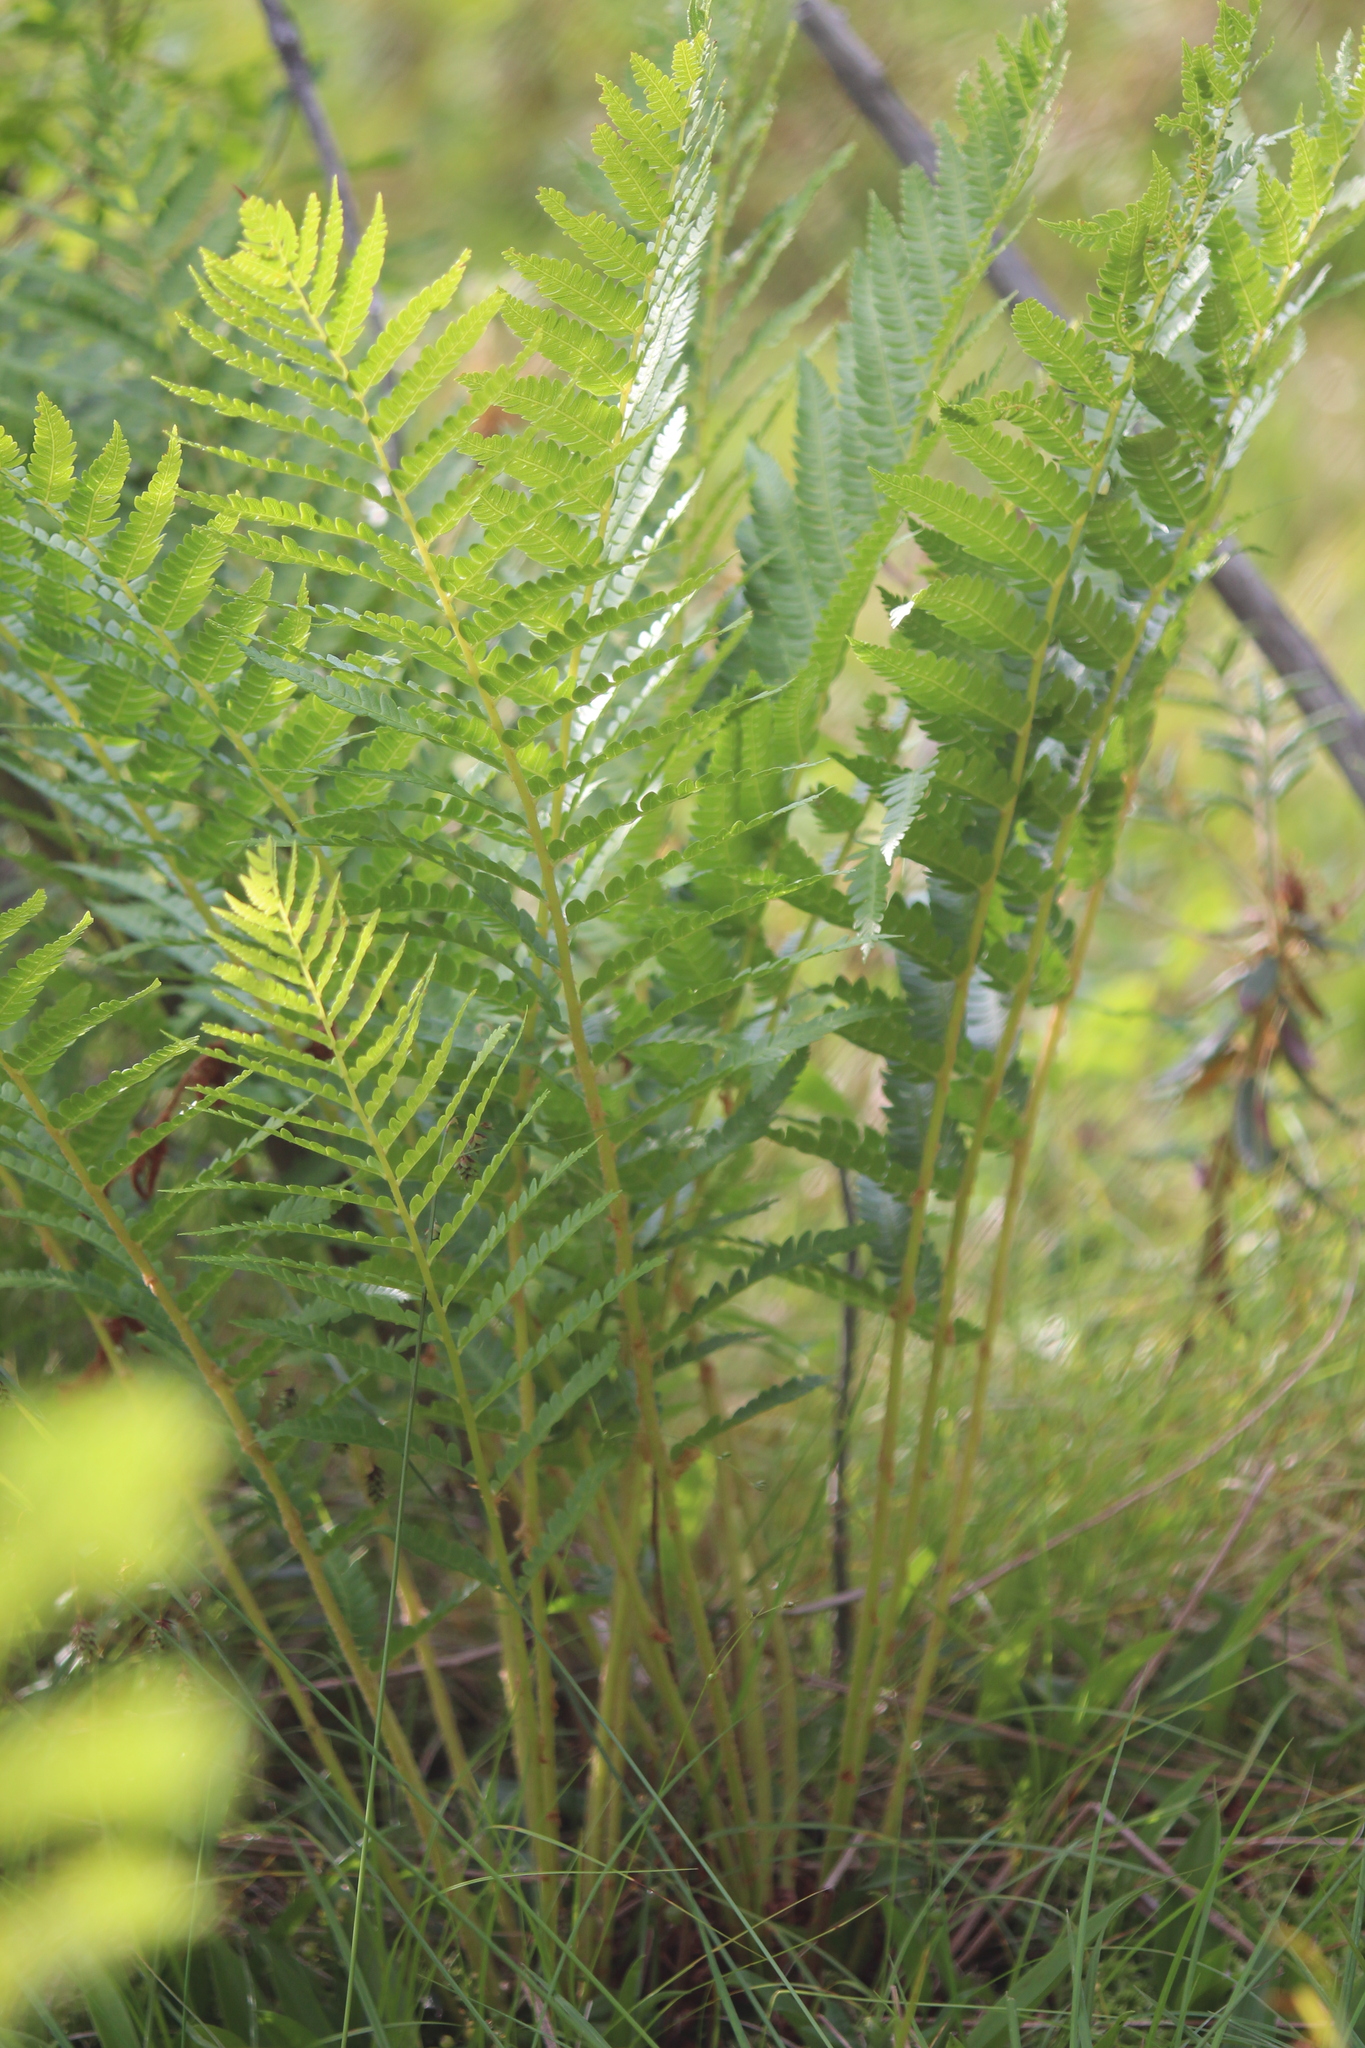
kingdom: Plantae
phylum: Tracheophyta
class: Polypodiopsida
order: Osmundales
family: Osmundaceae
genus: Osmundastrum
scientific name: Osmundastrum cinnamomeum
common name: Cinnamon fern
